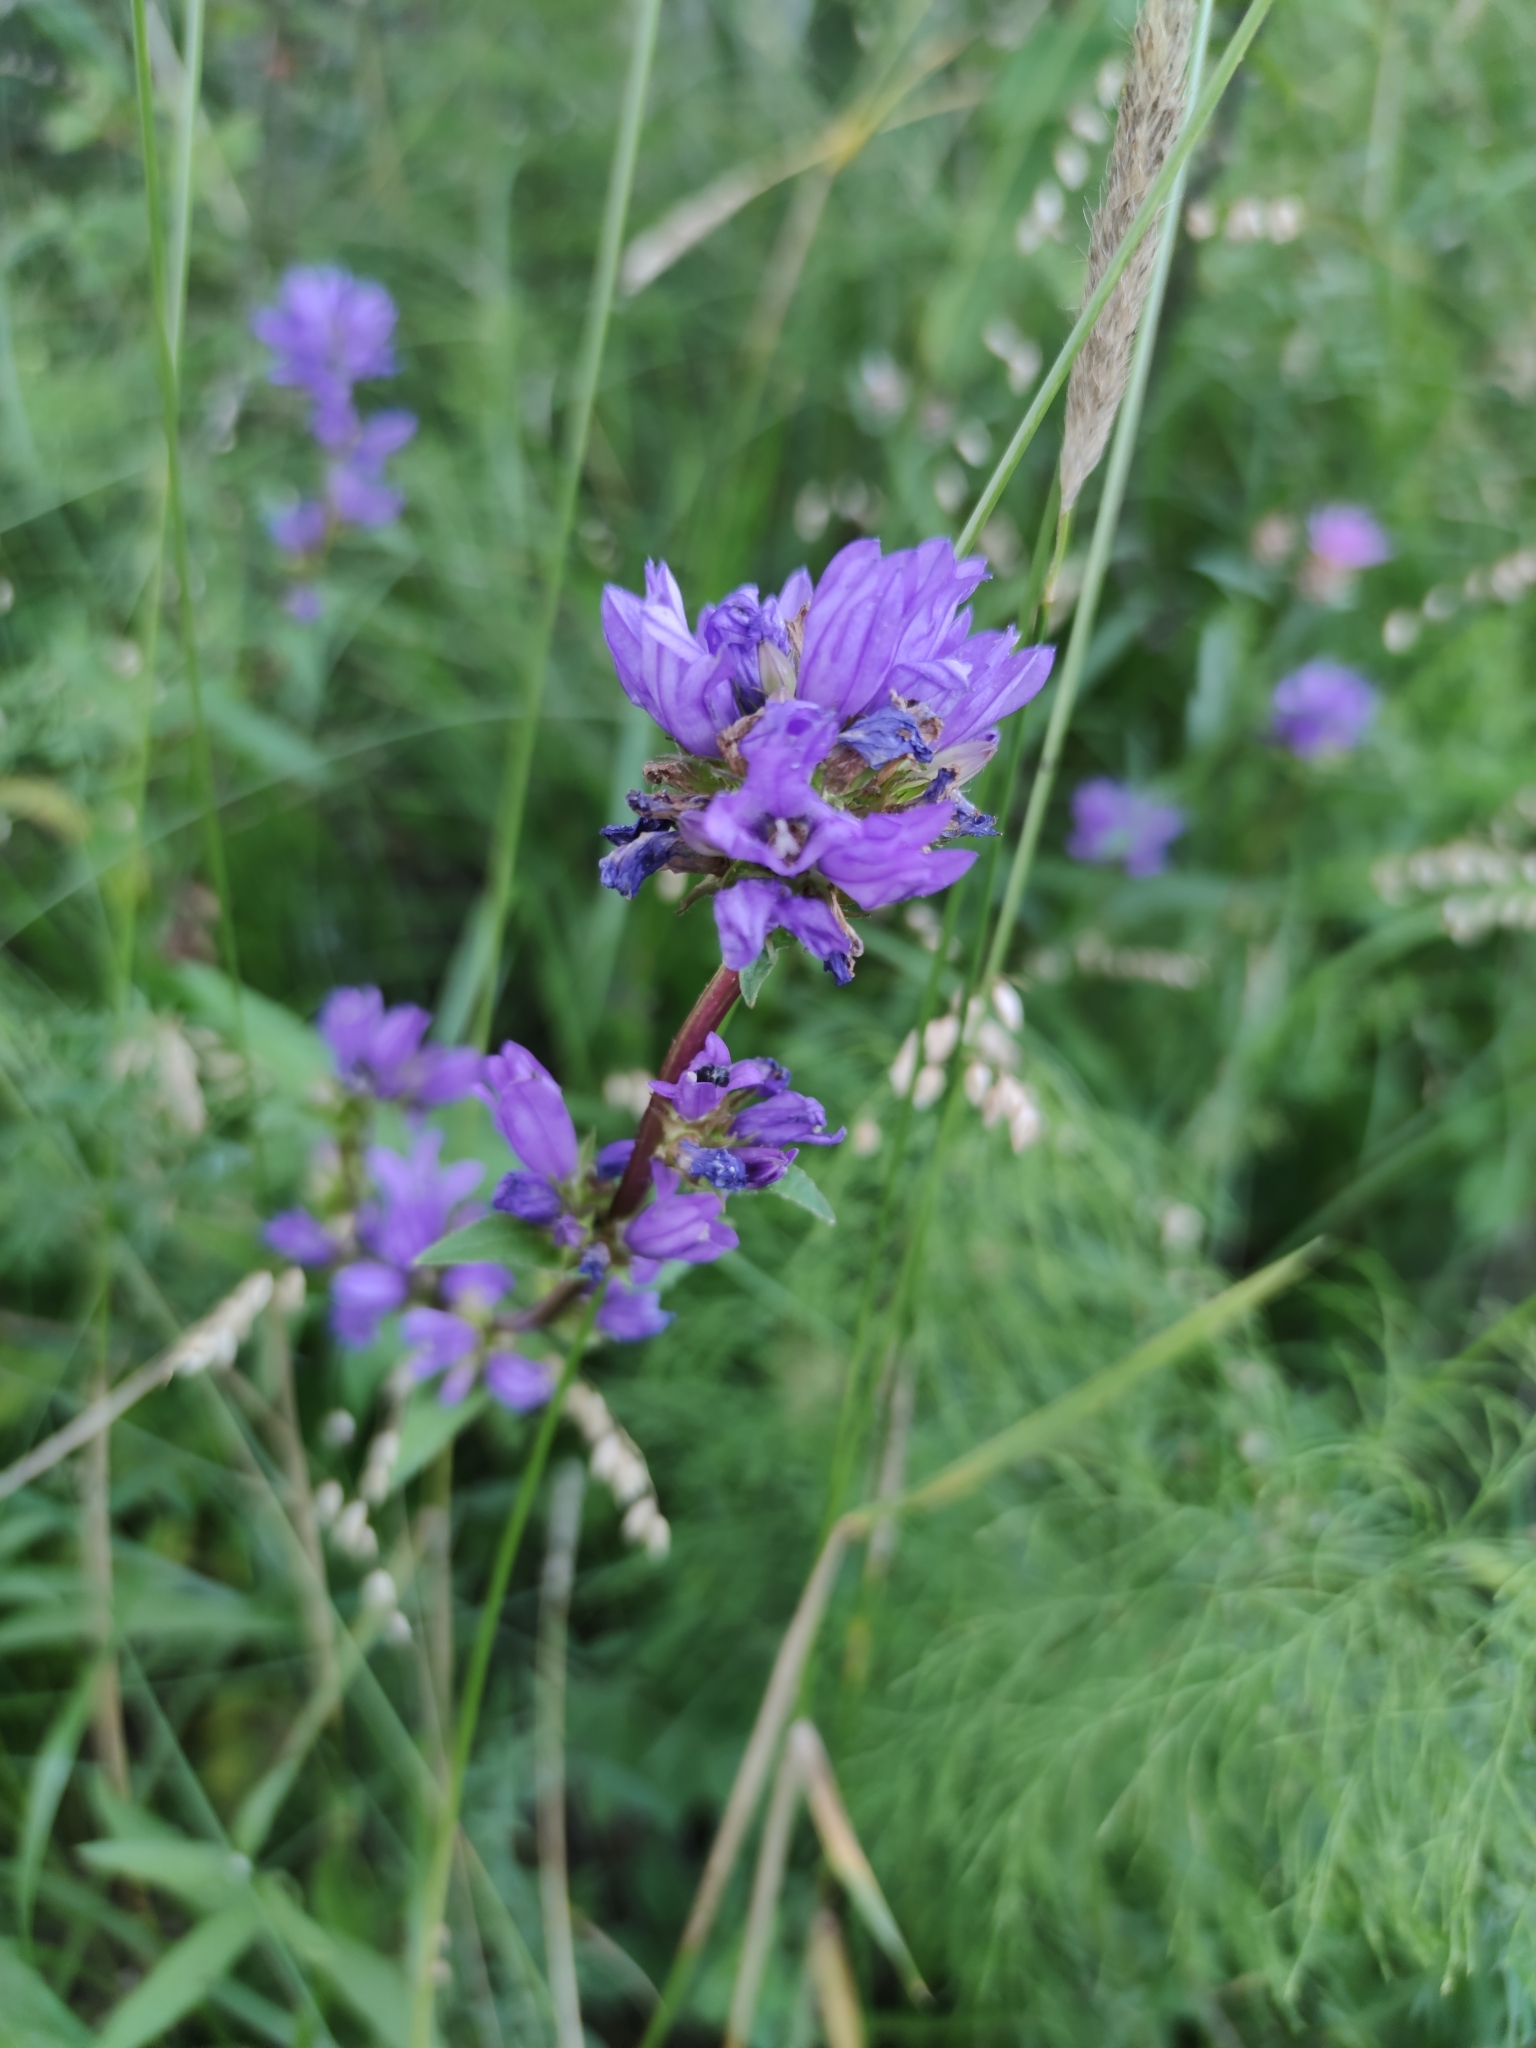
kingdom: Plantae
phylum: Tracheophyta
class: Magnoliopsida
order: Asterales
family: Campanulaceae
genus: Campanula
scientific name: Campanula glomerata
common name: Clustered bellflower
